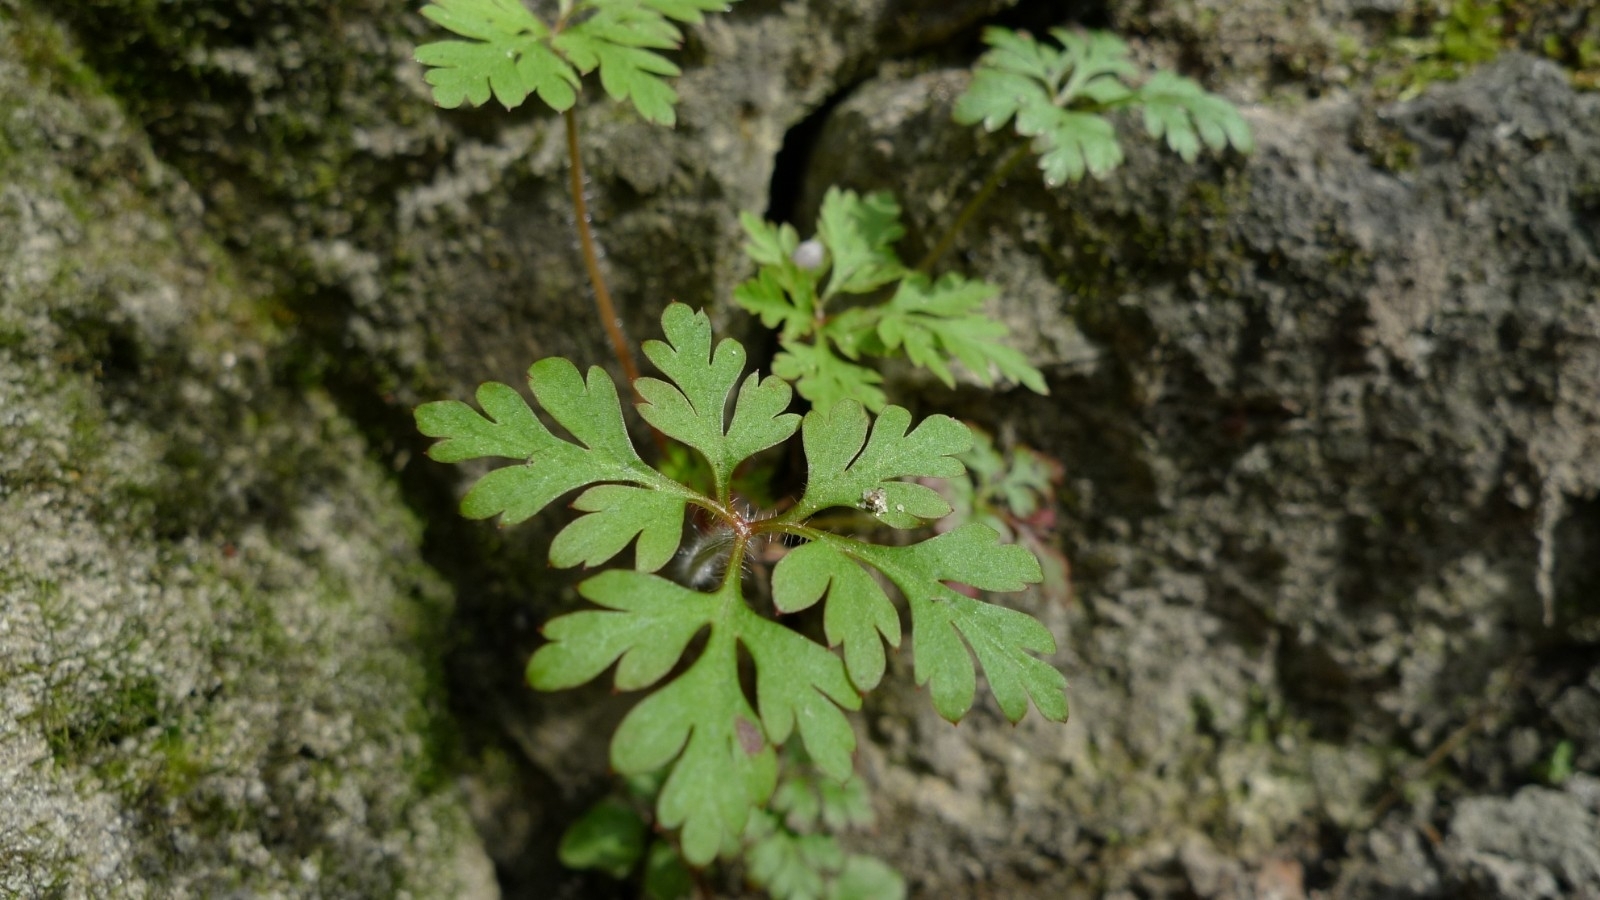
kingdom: Plantae
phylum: Tracheophyta
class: Magnoliopsida
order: Geraniales
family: Geraniaceae
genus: Geranium
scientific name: Geranium robertianum
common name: Herb-robert
